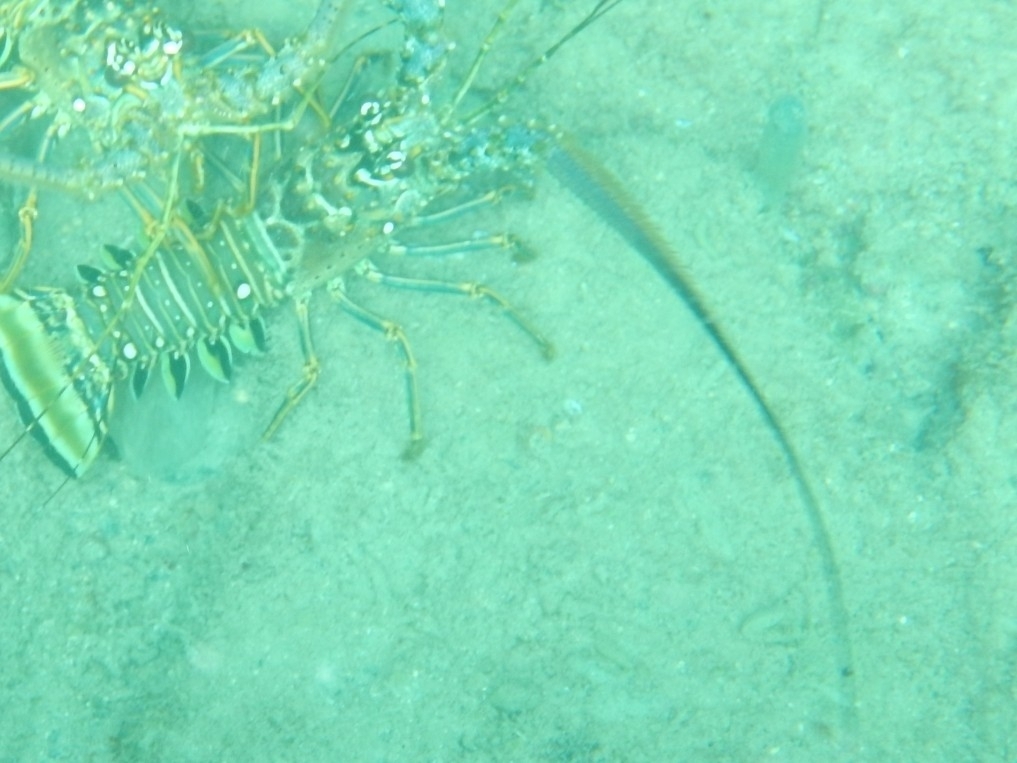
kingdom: Animalia
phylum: Arthropoda
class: Malacostraca
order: Decapoda
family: Palinuridae
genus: Panulirus
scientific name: Panulirus argus
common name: Caribbean spiny lobster
